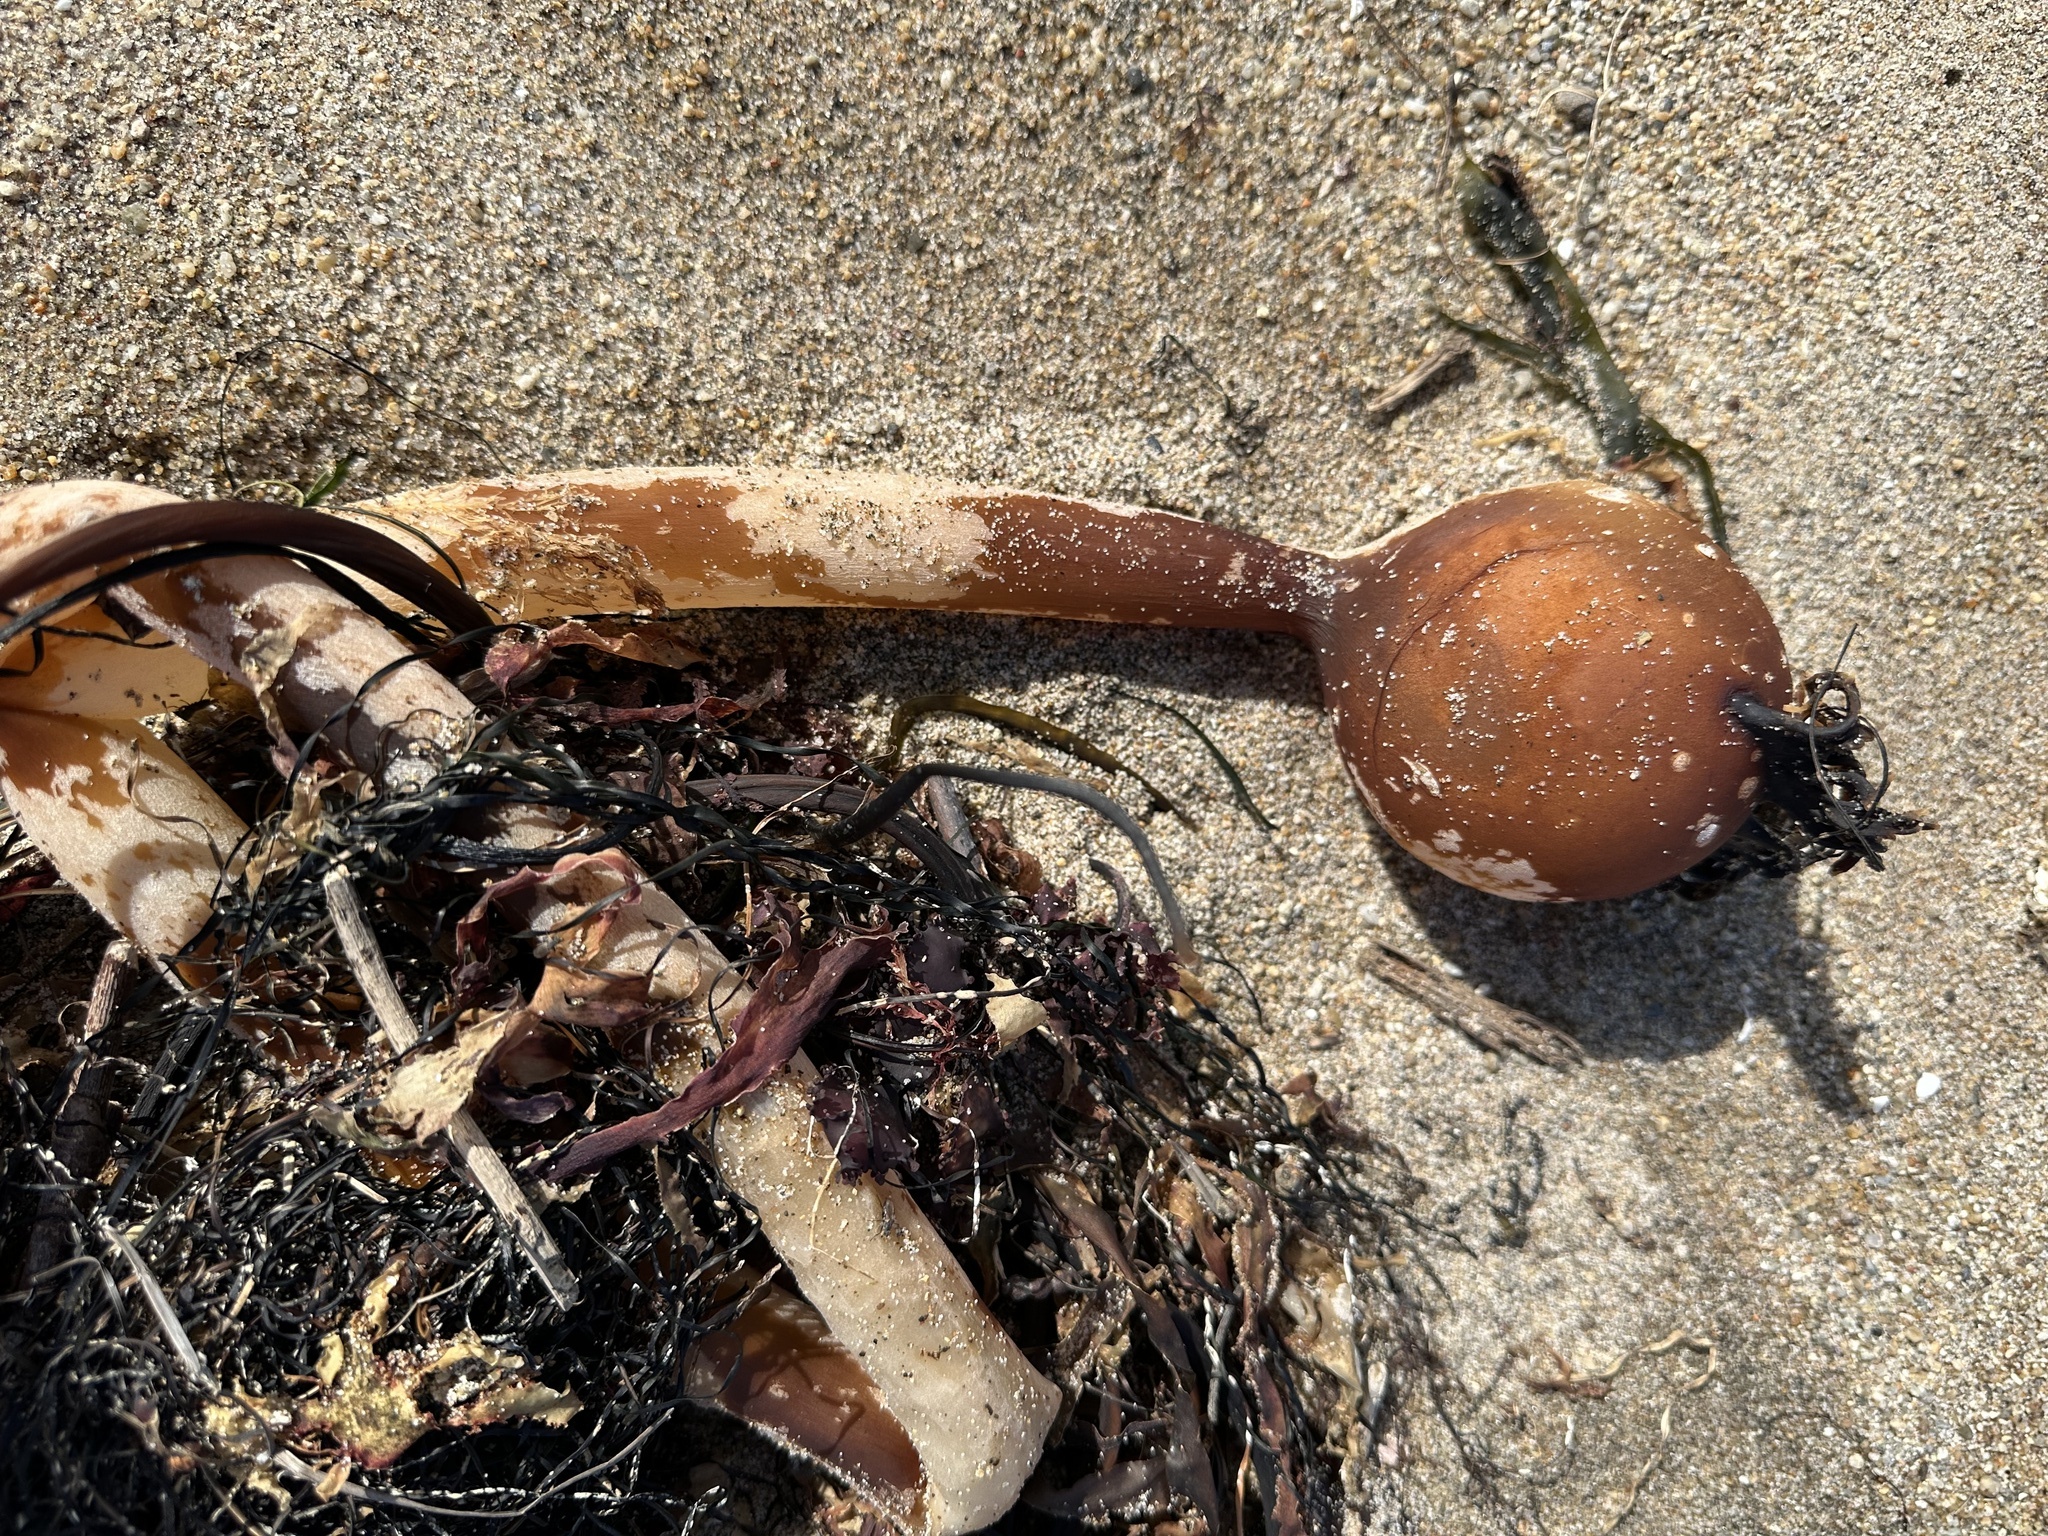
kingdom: Chromista
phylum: Ochrophyta
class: Phaeophyceae
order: Laminariales
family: Laminariaceae
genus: Nereocystis
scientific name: Nereocystis luetkeana
